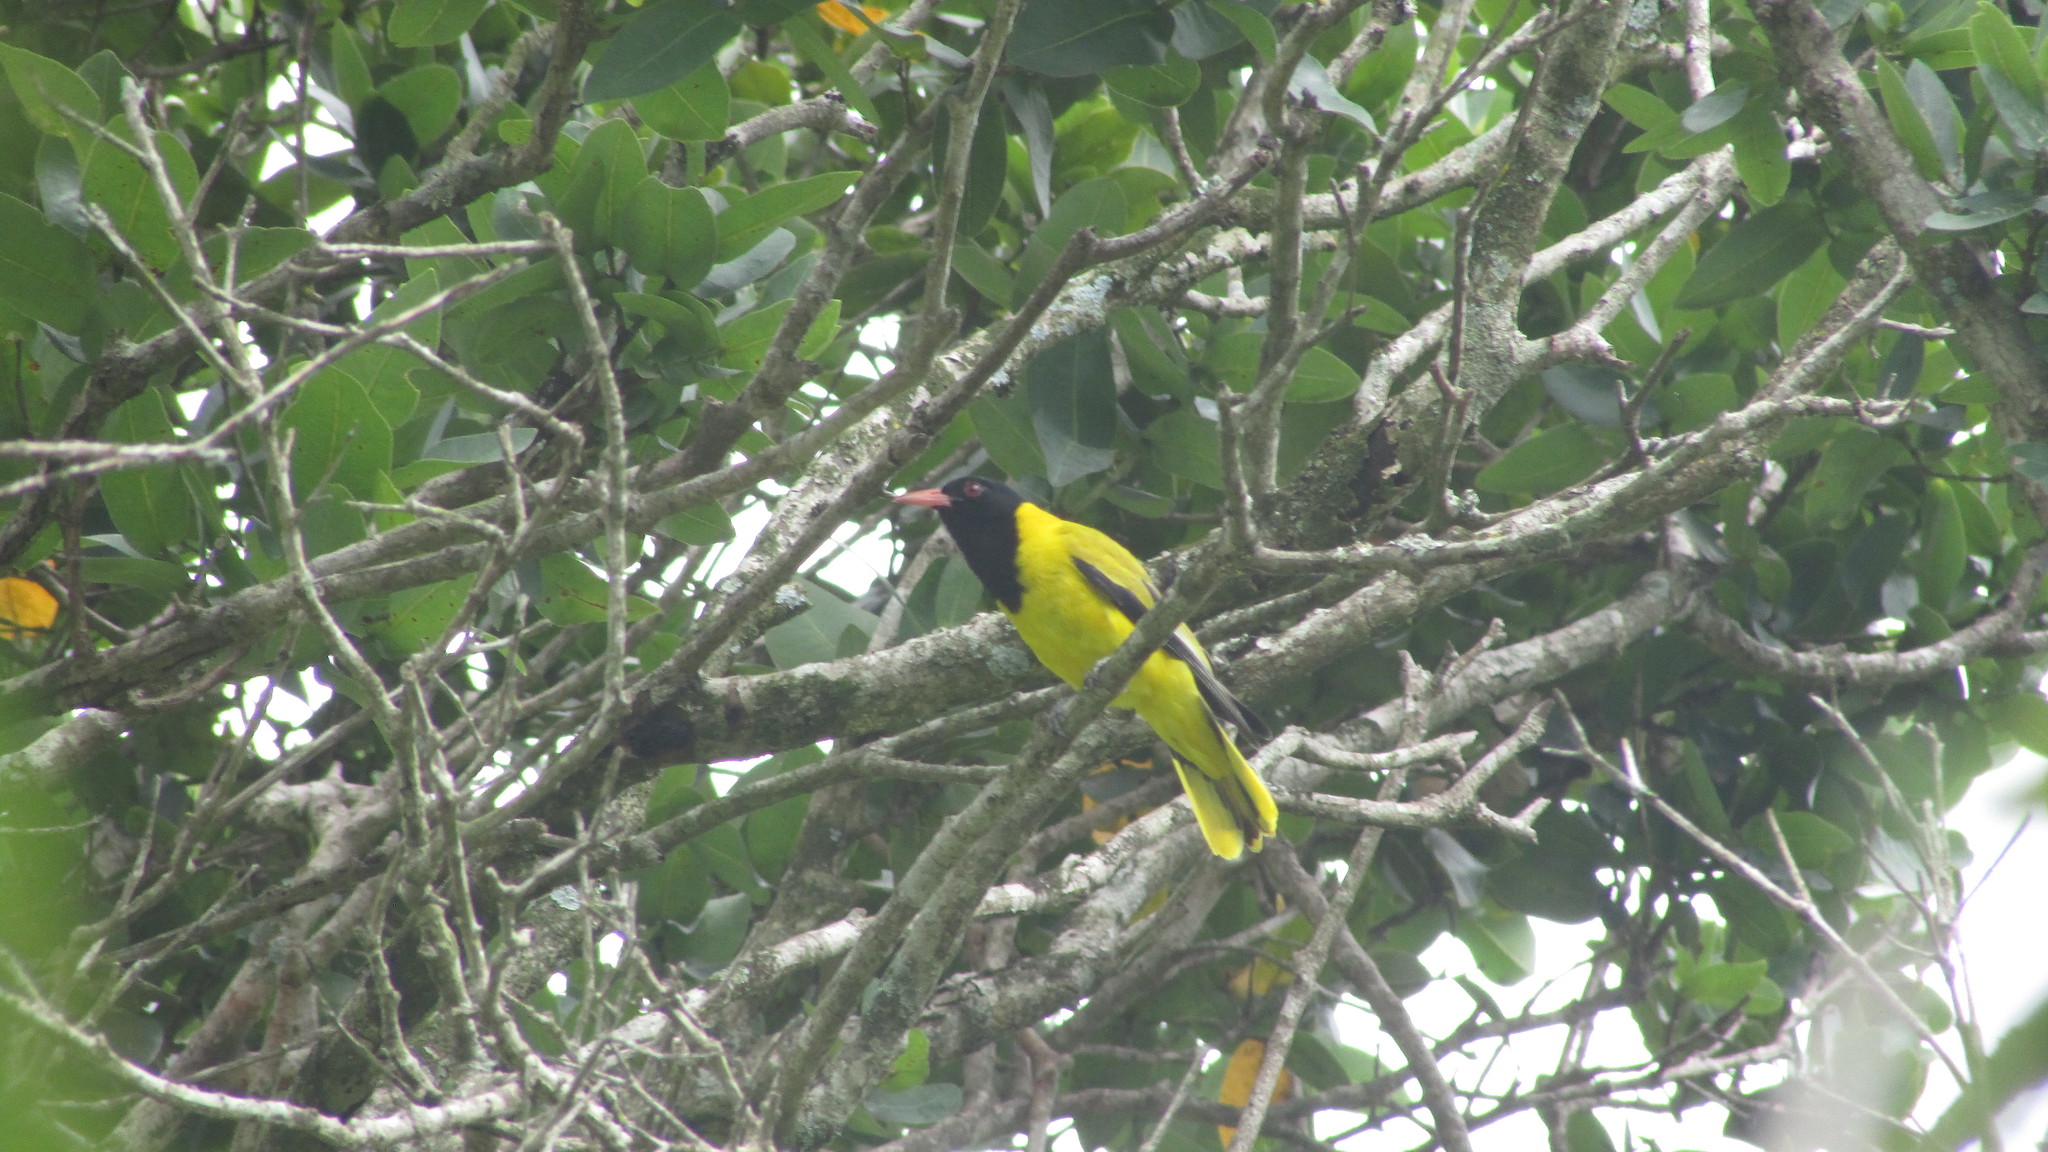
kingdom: Animalia
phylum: Chordata
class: Aves
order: Passeriformes
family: Oriolidae
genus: Oriolus
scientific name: Oriolus larvatus
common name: Black-headed oriole
